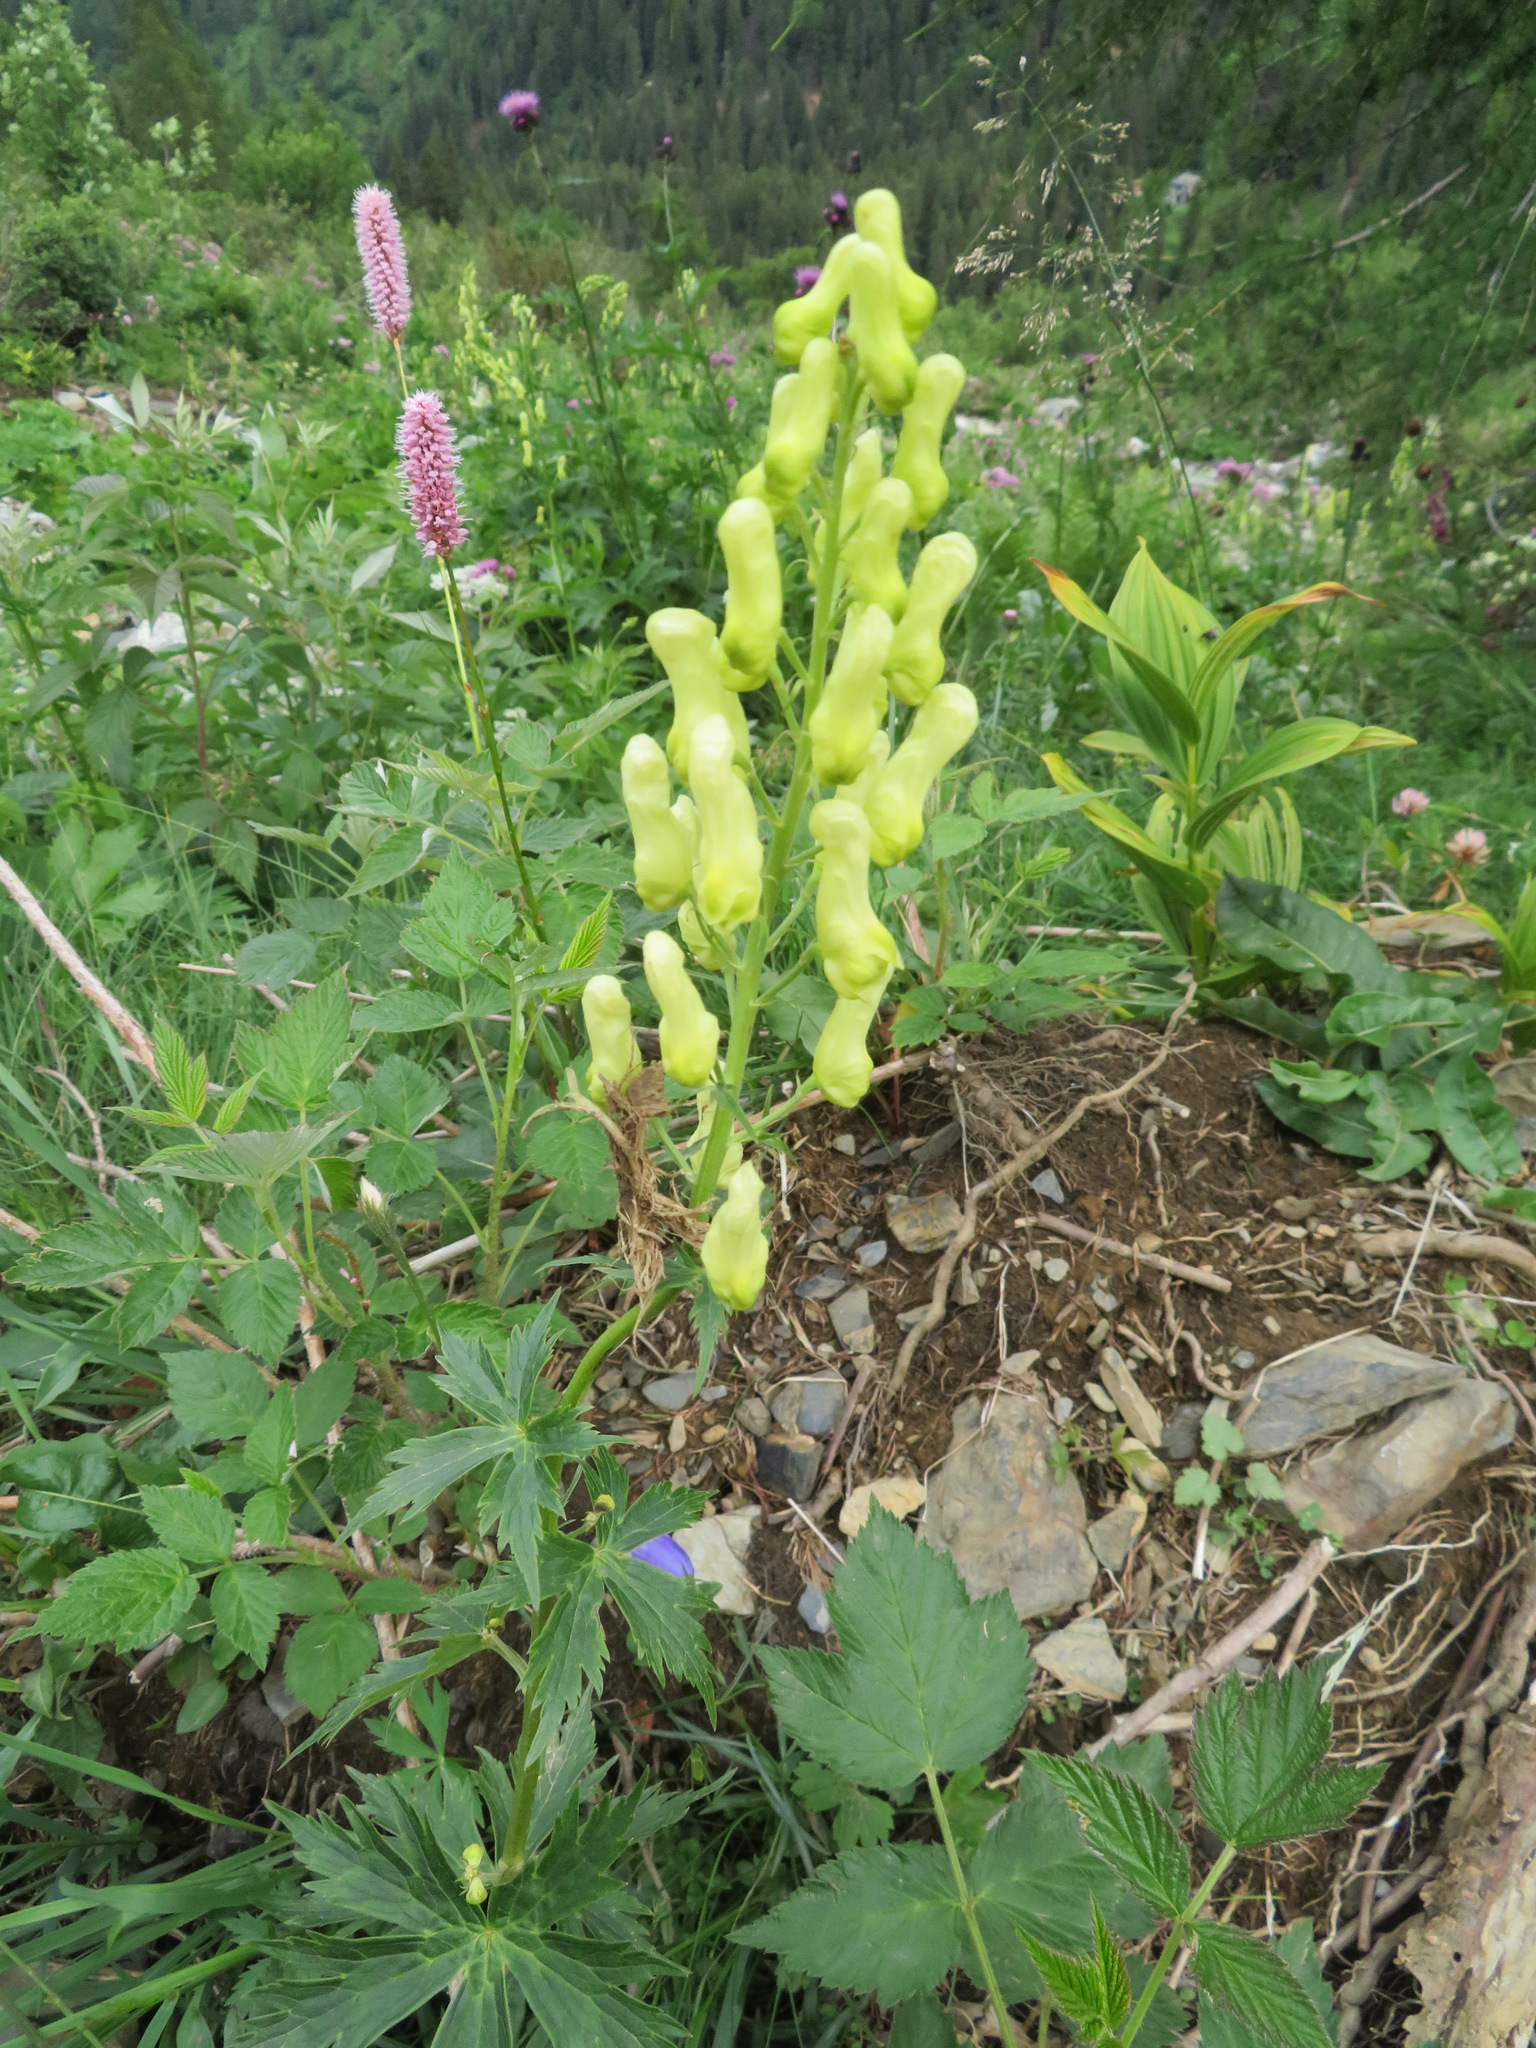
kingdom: Plantae
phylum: Tracheophyta
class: Magnoliopsida
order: Ranunculales
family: Ranunculaceae
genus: Aconitum
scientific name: Aconitum lycoctonum
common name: Wolf's-bane
